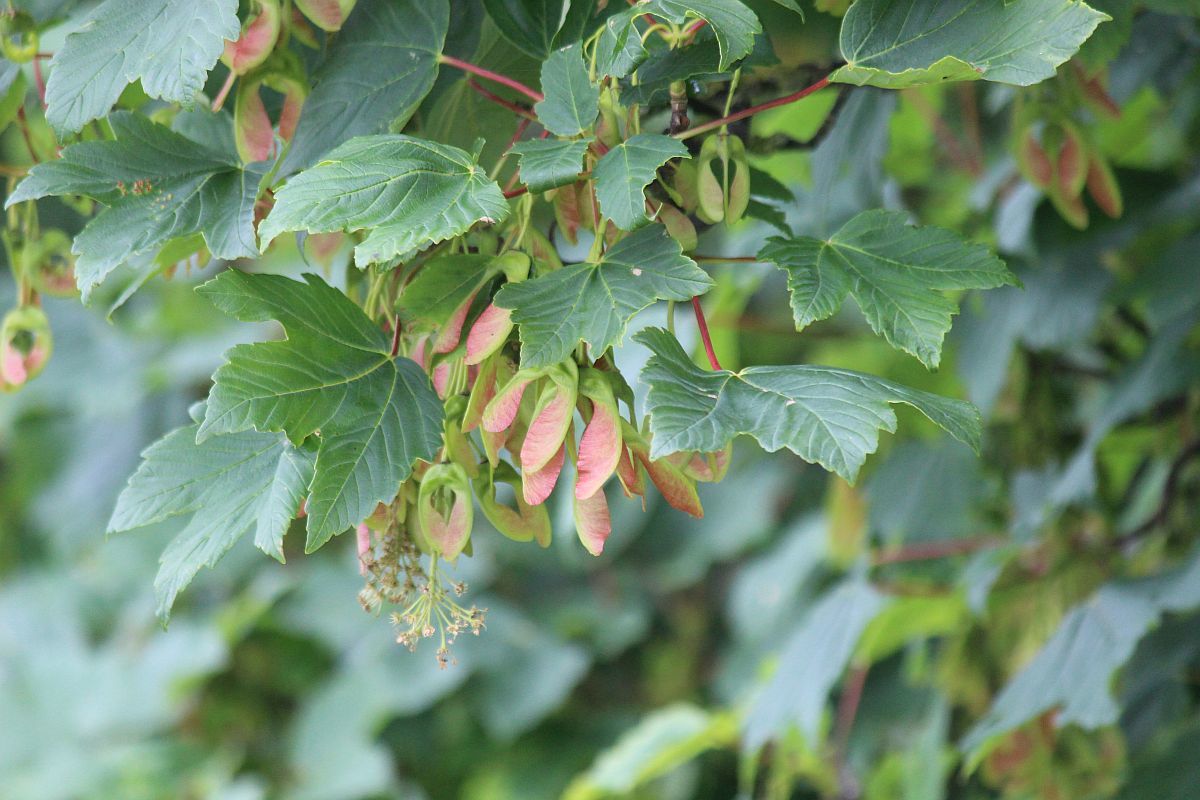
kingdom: Plantae
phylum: Tracheophyta
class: Magnoliopsida
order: Sapindales
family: Sapindaceae
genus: Acer
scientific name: Acer pseudoplatanus
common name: Sycamore
